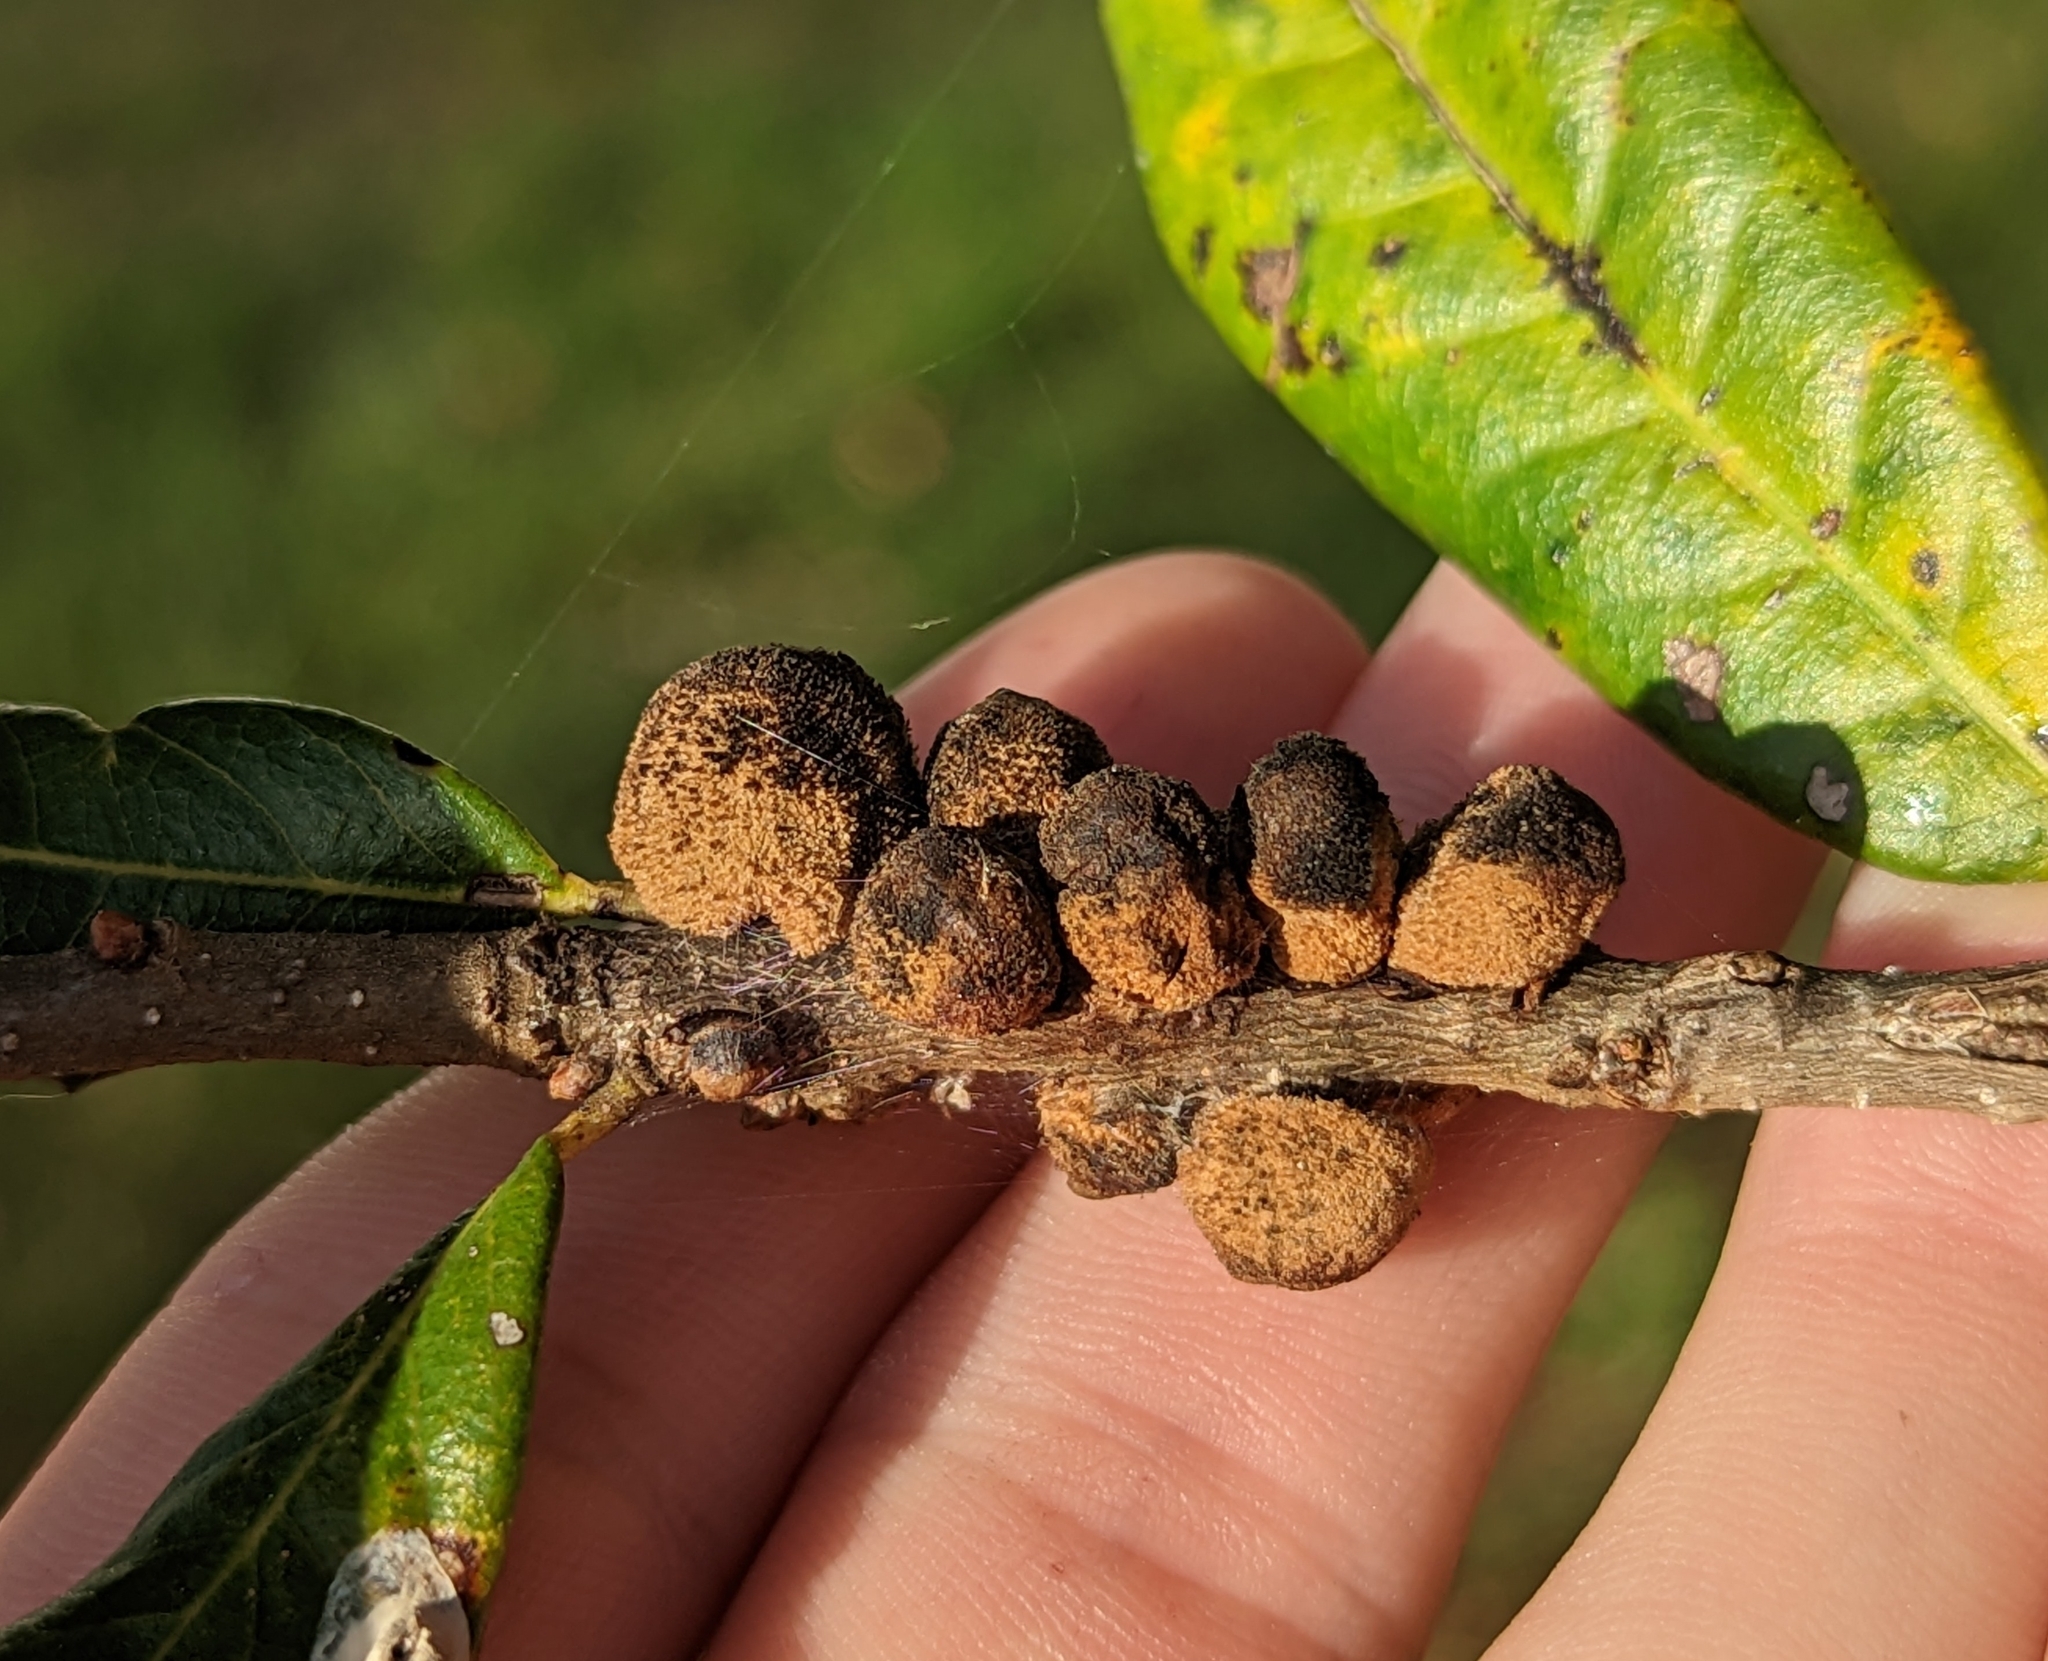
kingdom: Animalia
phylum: Arthropoda
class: Insecta
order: Hymenoptera
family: Cynipidae
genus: Disholcaspis
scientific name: Disholcaspis
